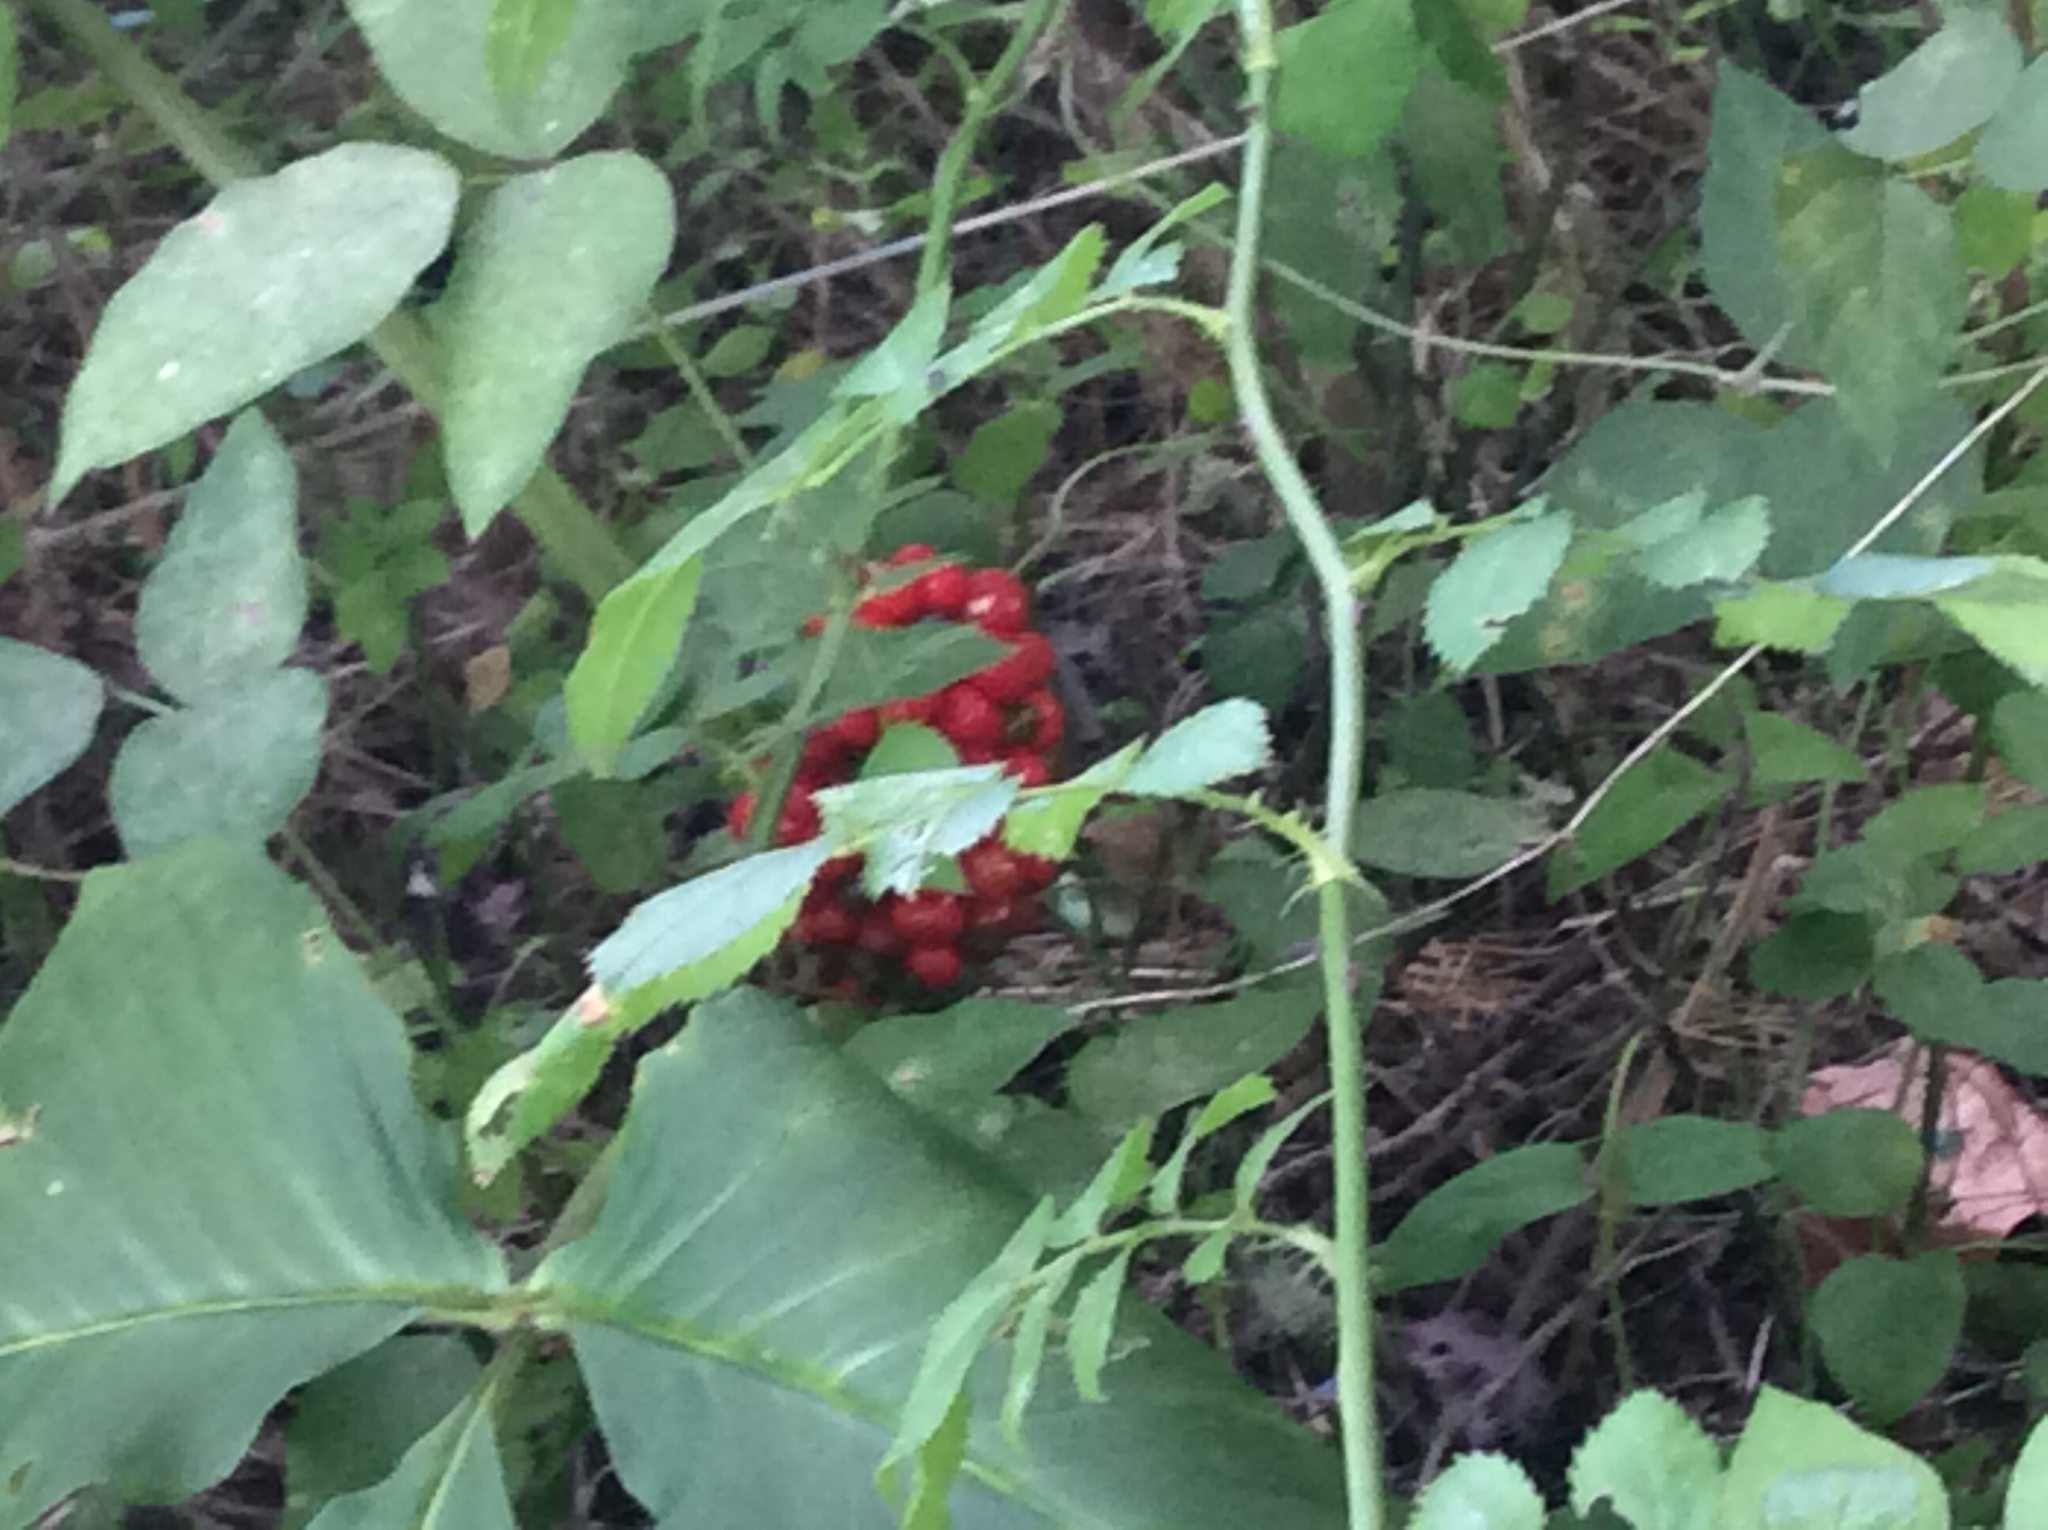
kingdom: Plantae
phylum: Tracheophyta
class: Liliopsida
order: Alismatales
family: Araceae
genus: Arisaema
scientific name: Arisaema triphyllum
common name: Jack-in-the-pulpit
